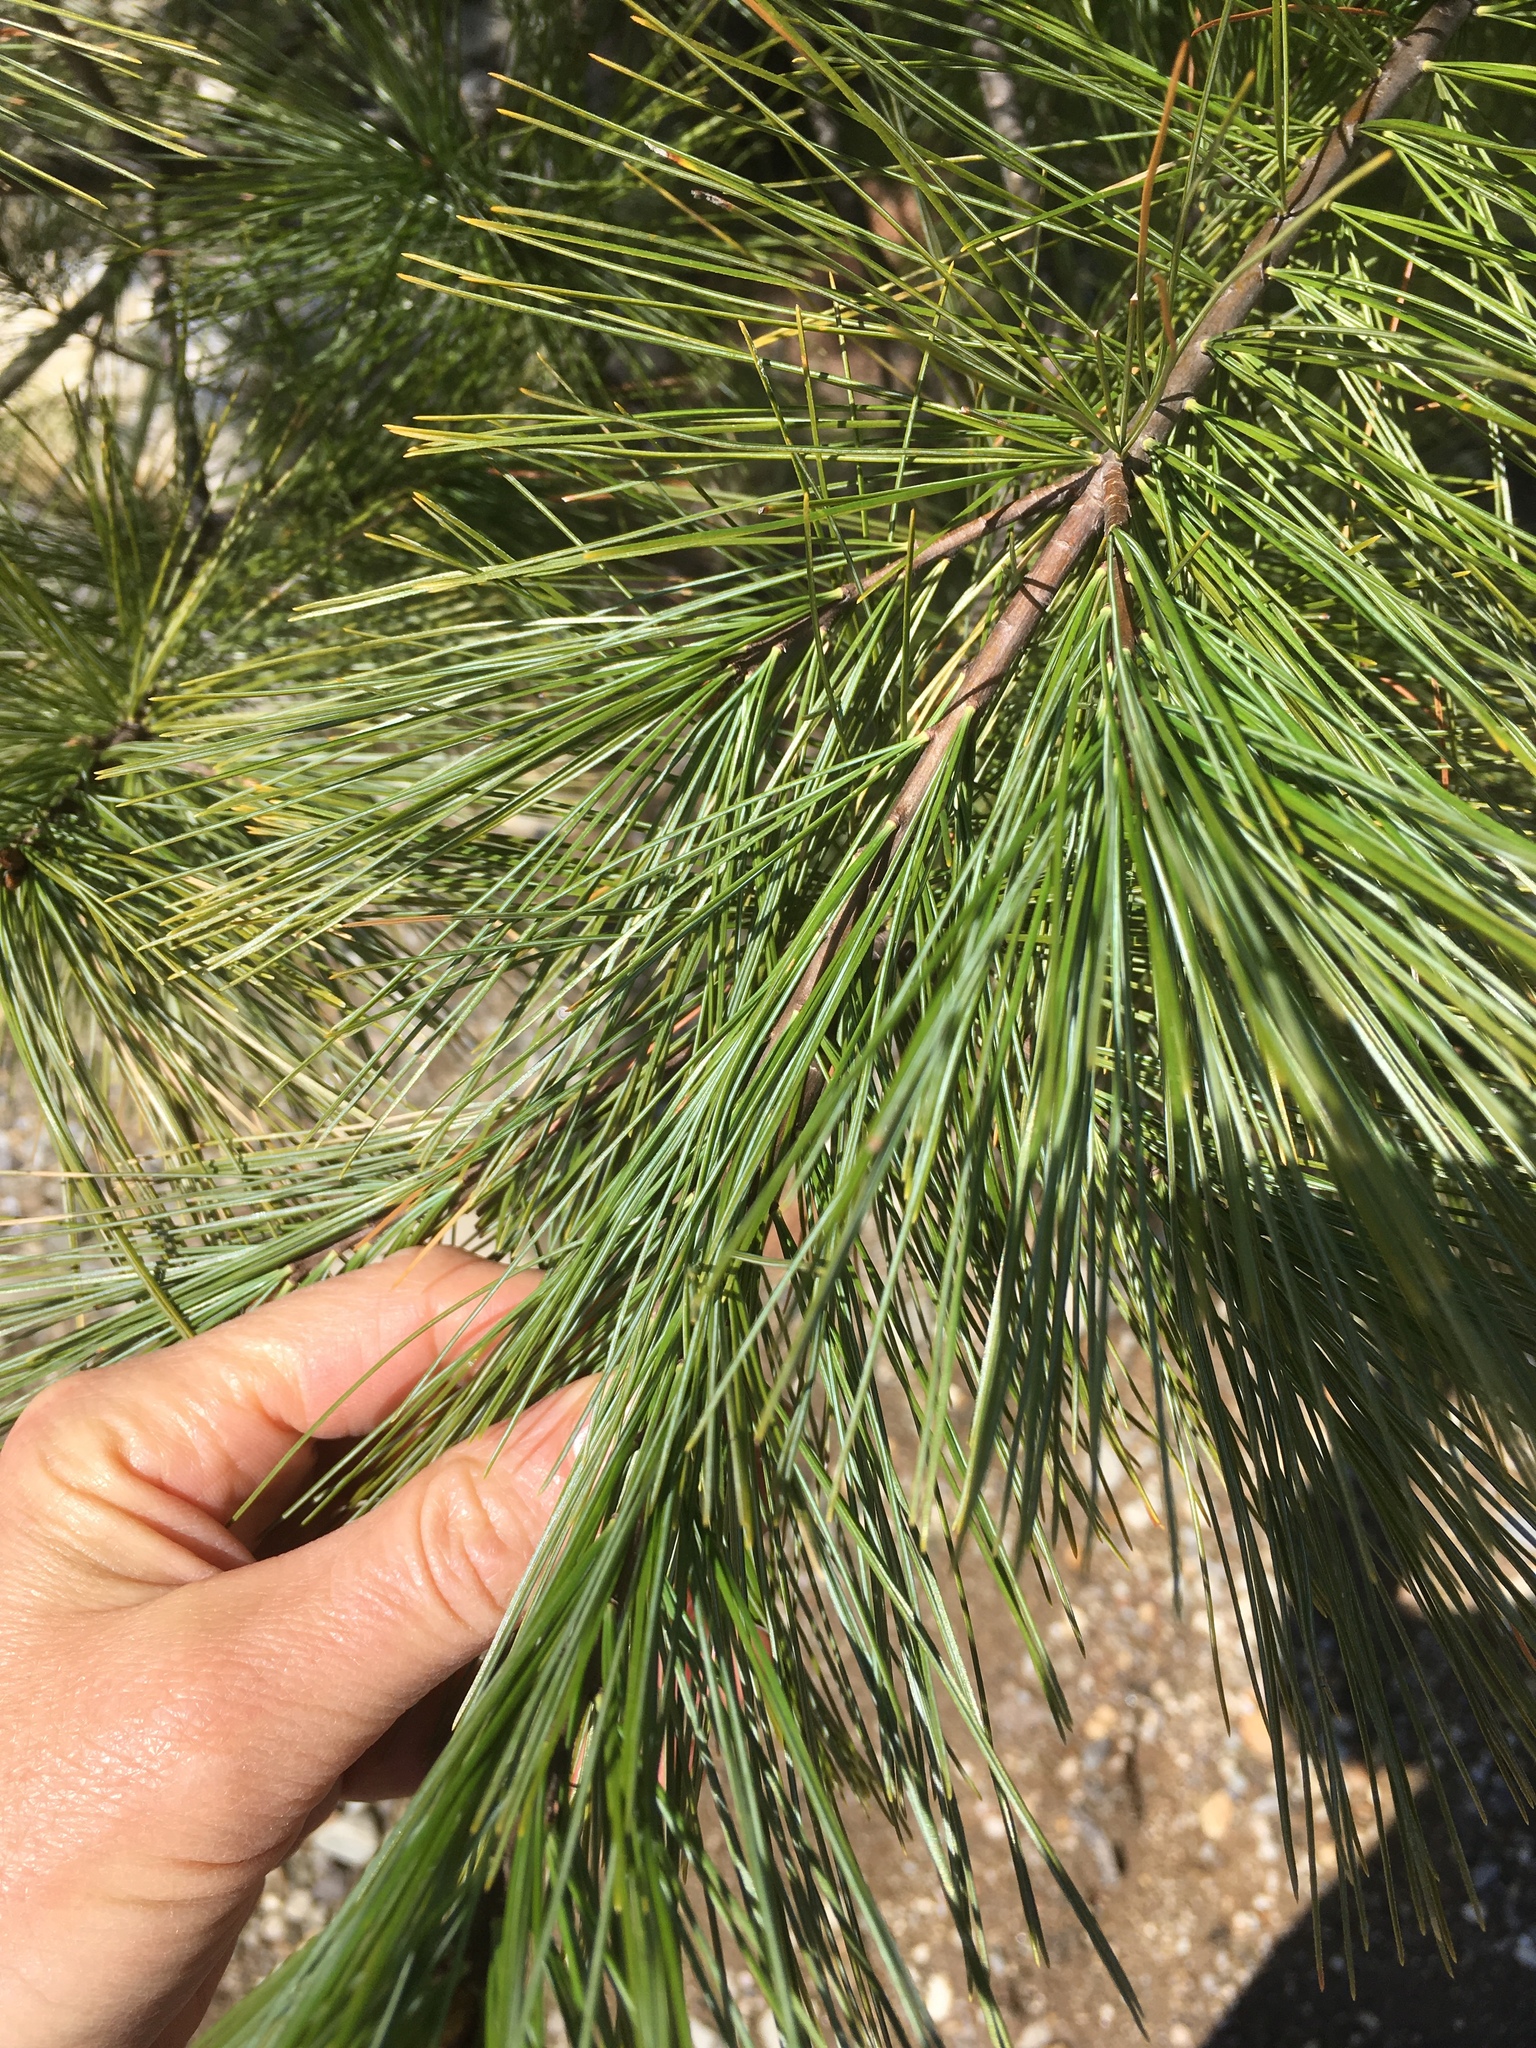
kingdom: Plantae
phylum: Tracheophyta
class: Pinopsida
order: Pinales
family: Pinaceae
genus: Pinus
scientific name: Pinus strobus
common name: Weymouth pine
